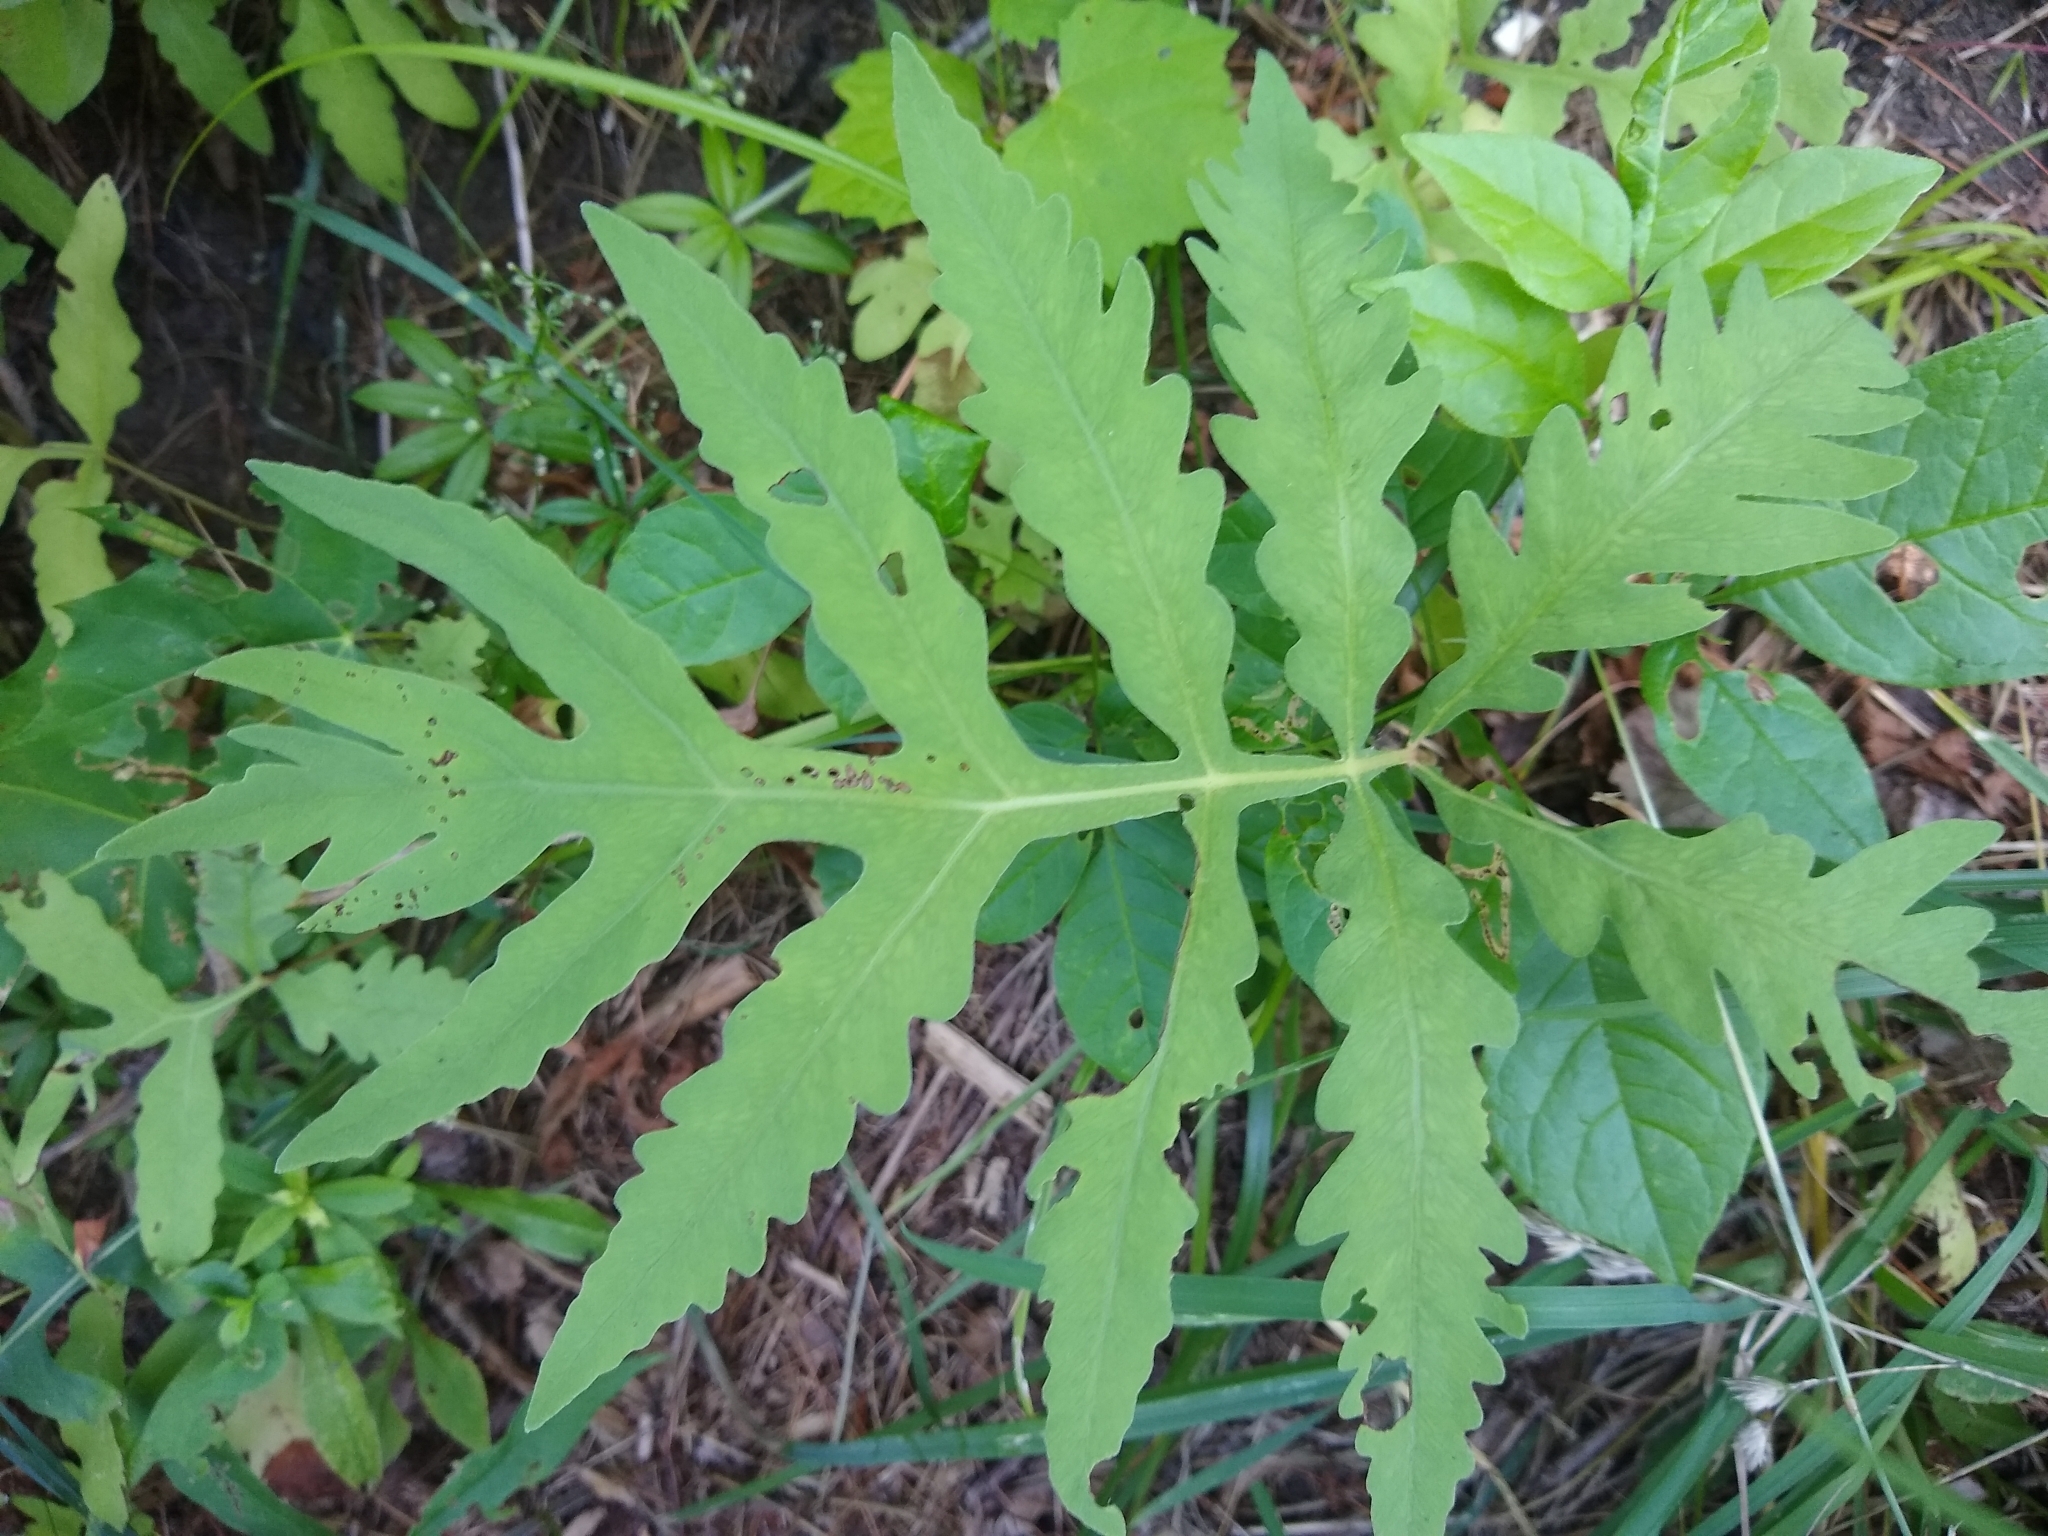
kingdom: Plantae
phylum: Tracheophyta
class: Polypodiopsida
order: Polypodiales
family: Onocleaceae
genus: Onoclea
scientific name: Onoclea sensibilis
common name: Sensitive fern
